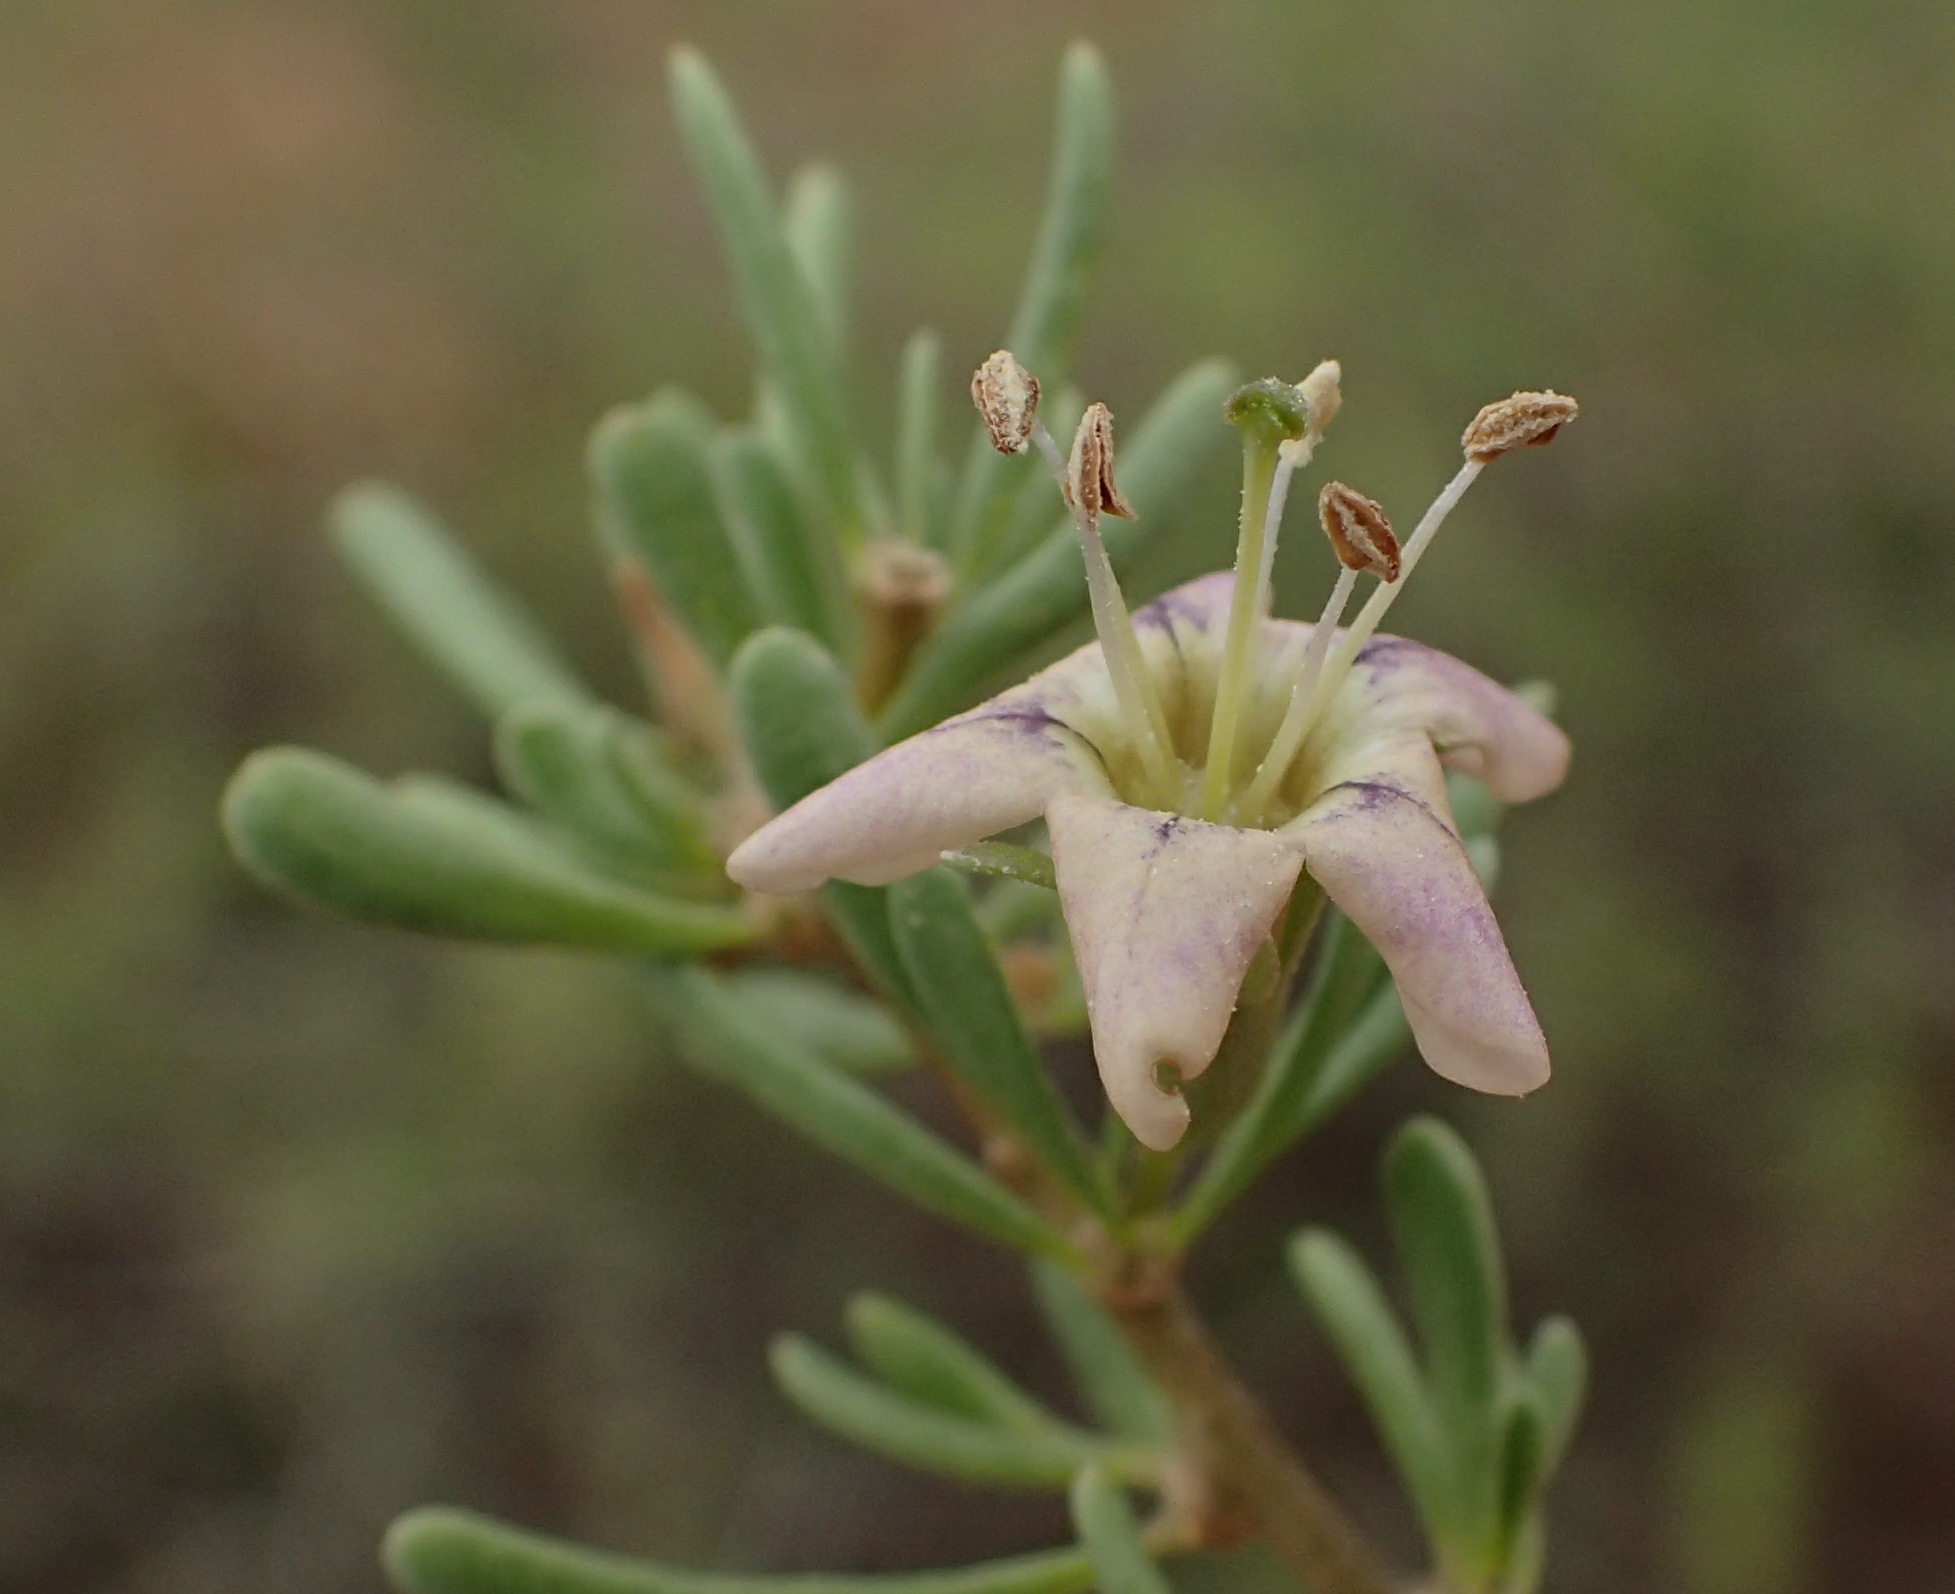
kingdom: Plantae
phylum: Tracheophyta
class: Magnoliopsida
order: Solanales
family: Solanaceae
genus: Lycium
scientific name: Lycium schizocalyx
